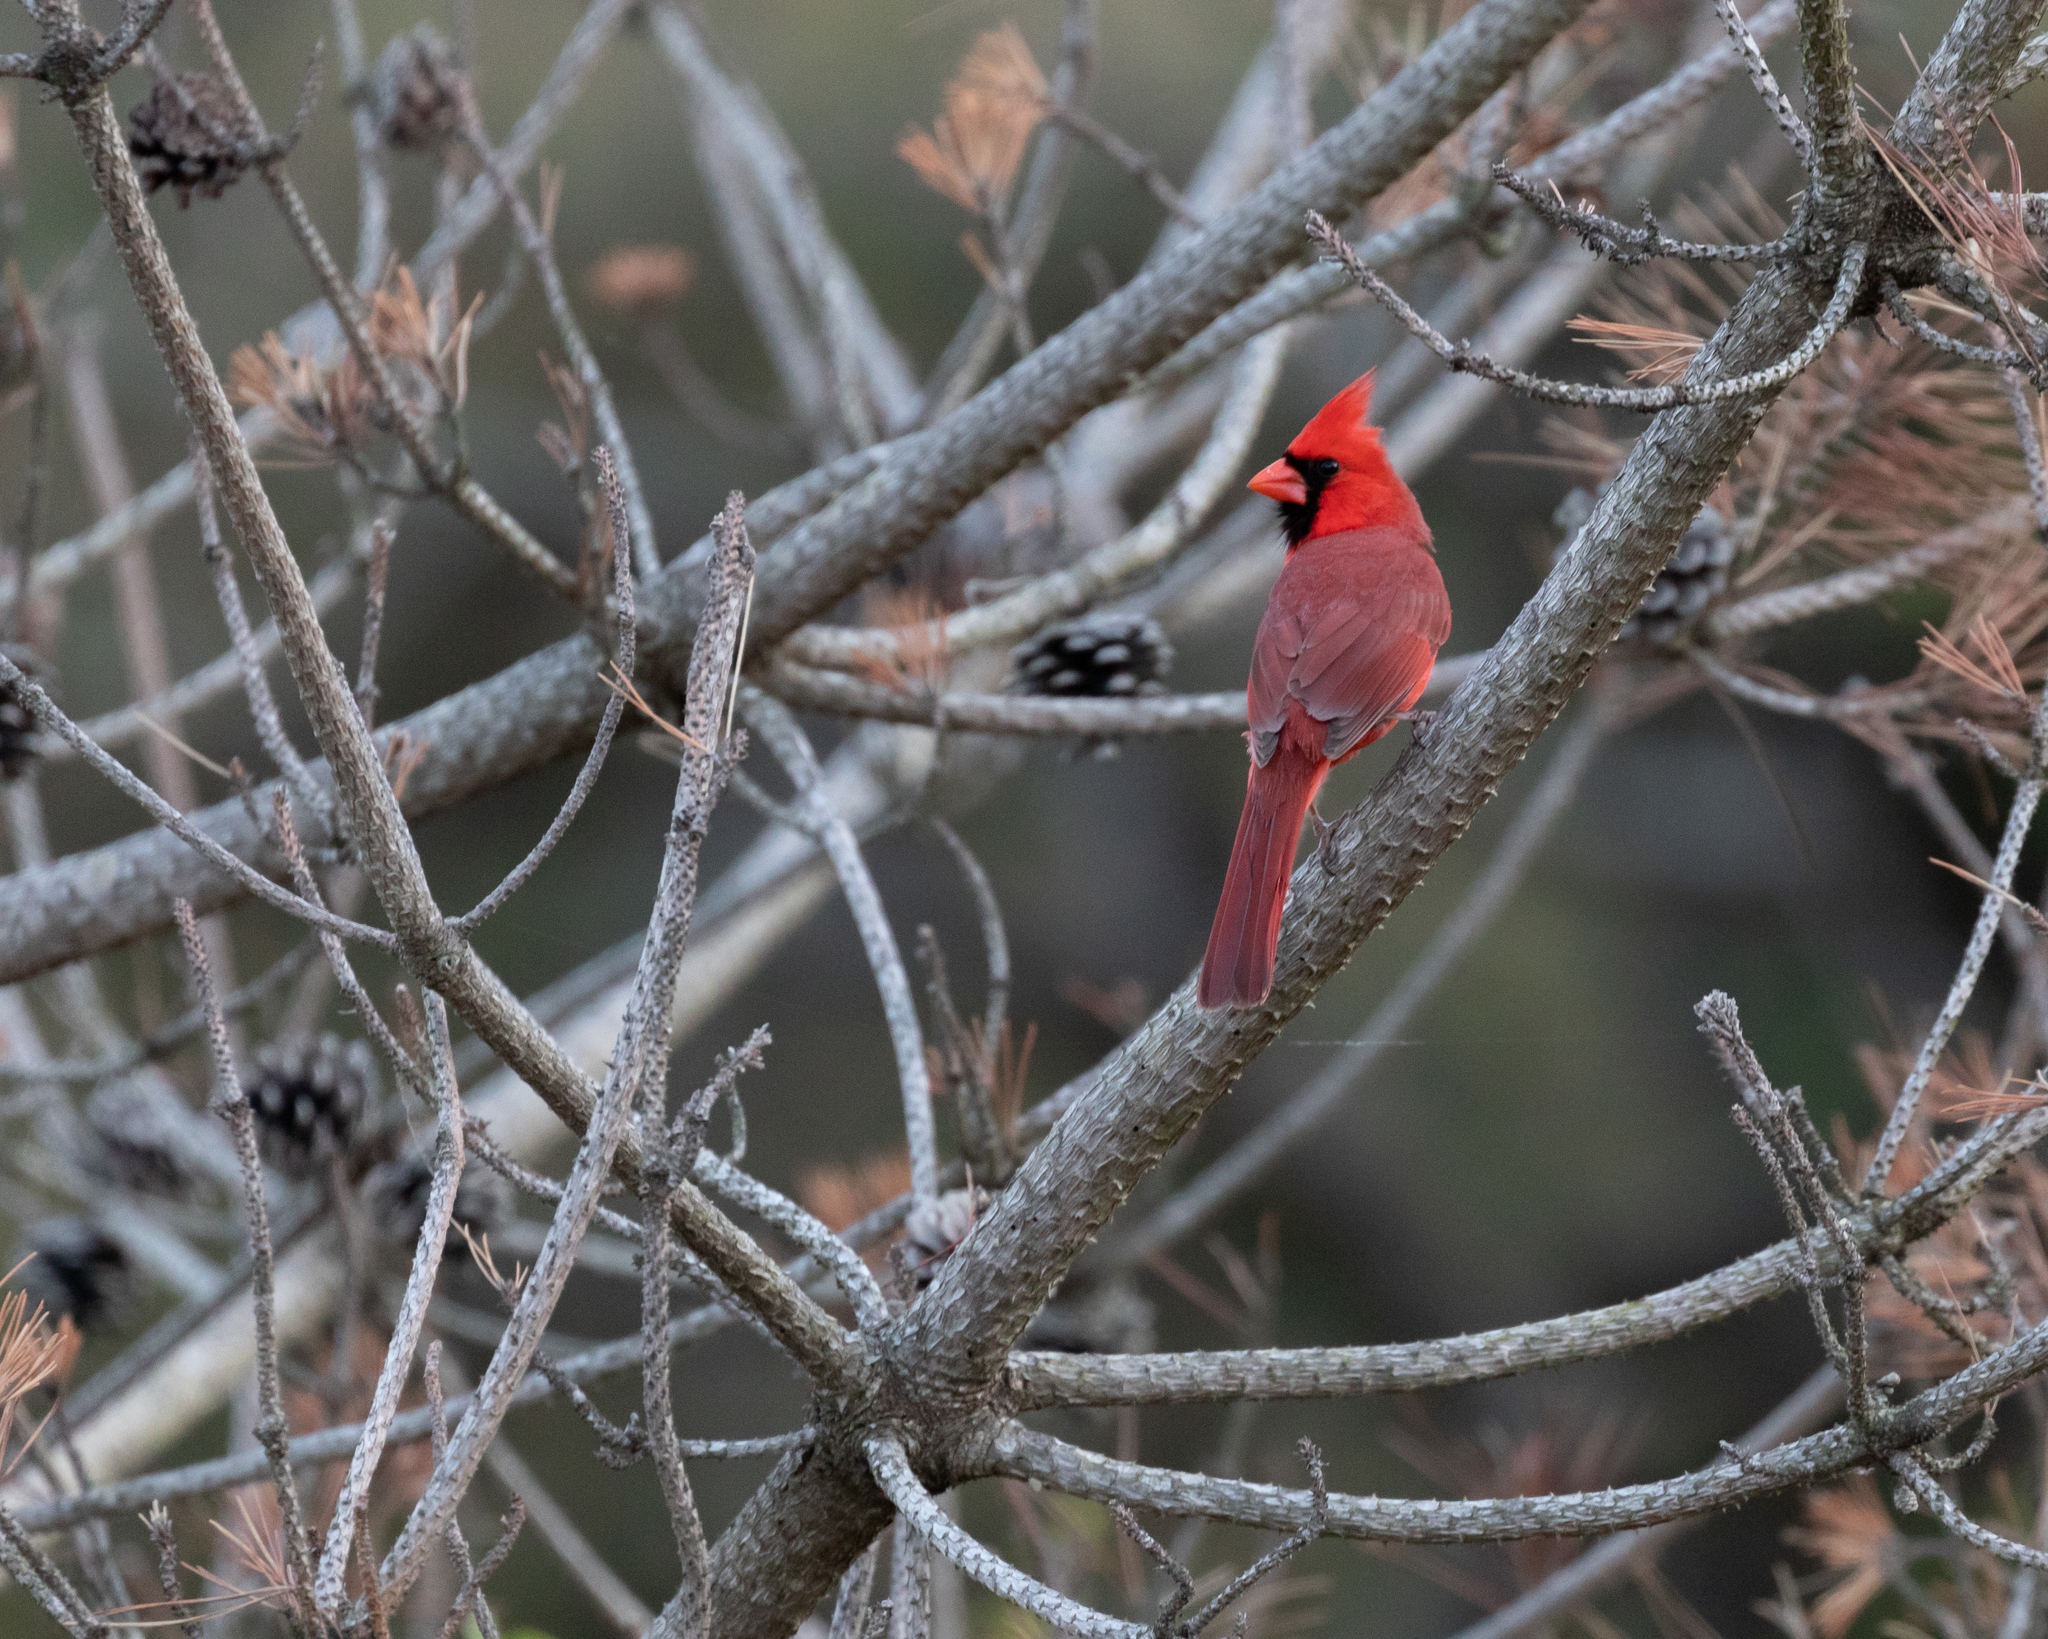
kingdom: Animalia
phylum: Chordata
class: Aves
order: Passeriformes
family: Cardinalidae
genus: Cardinalis
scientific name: Cardinalis cardinalis
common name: Northern cardinal
